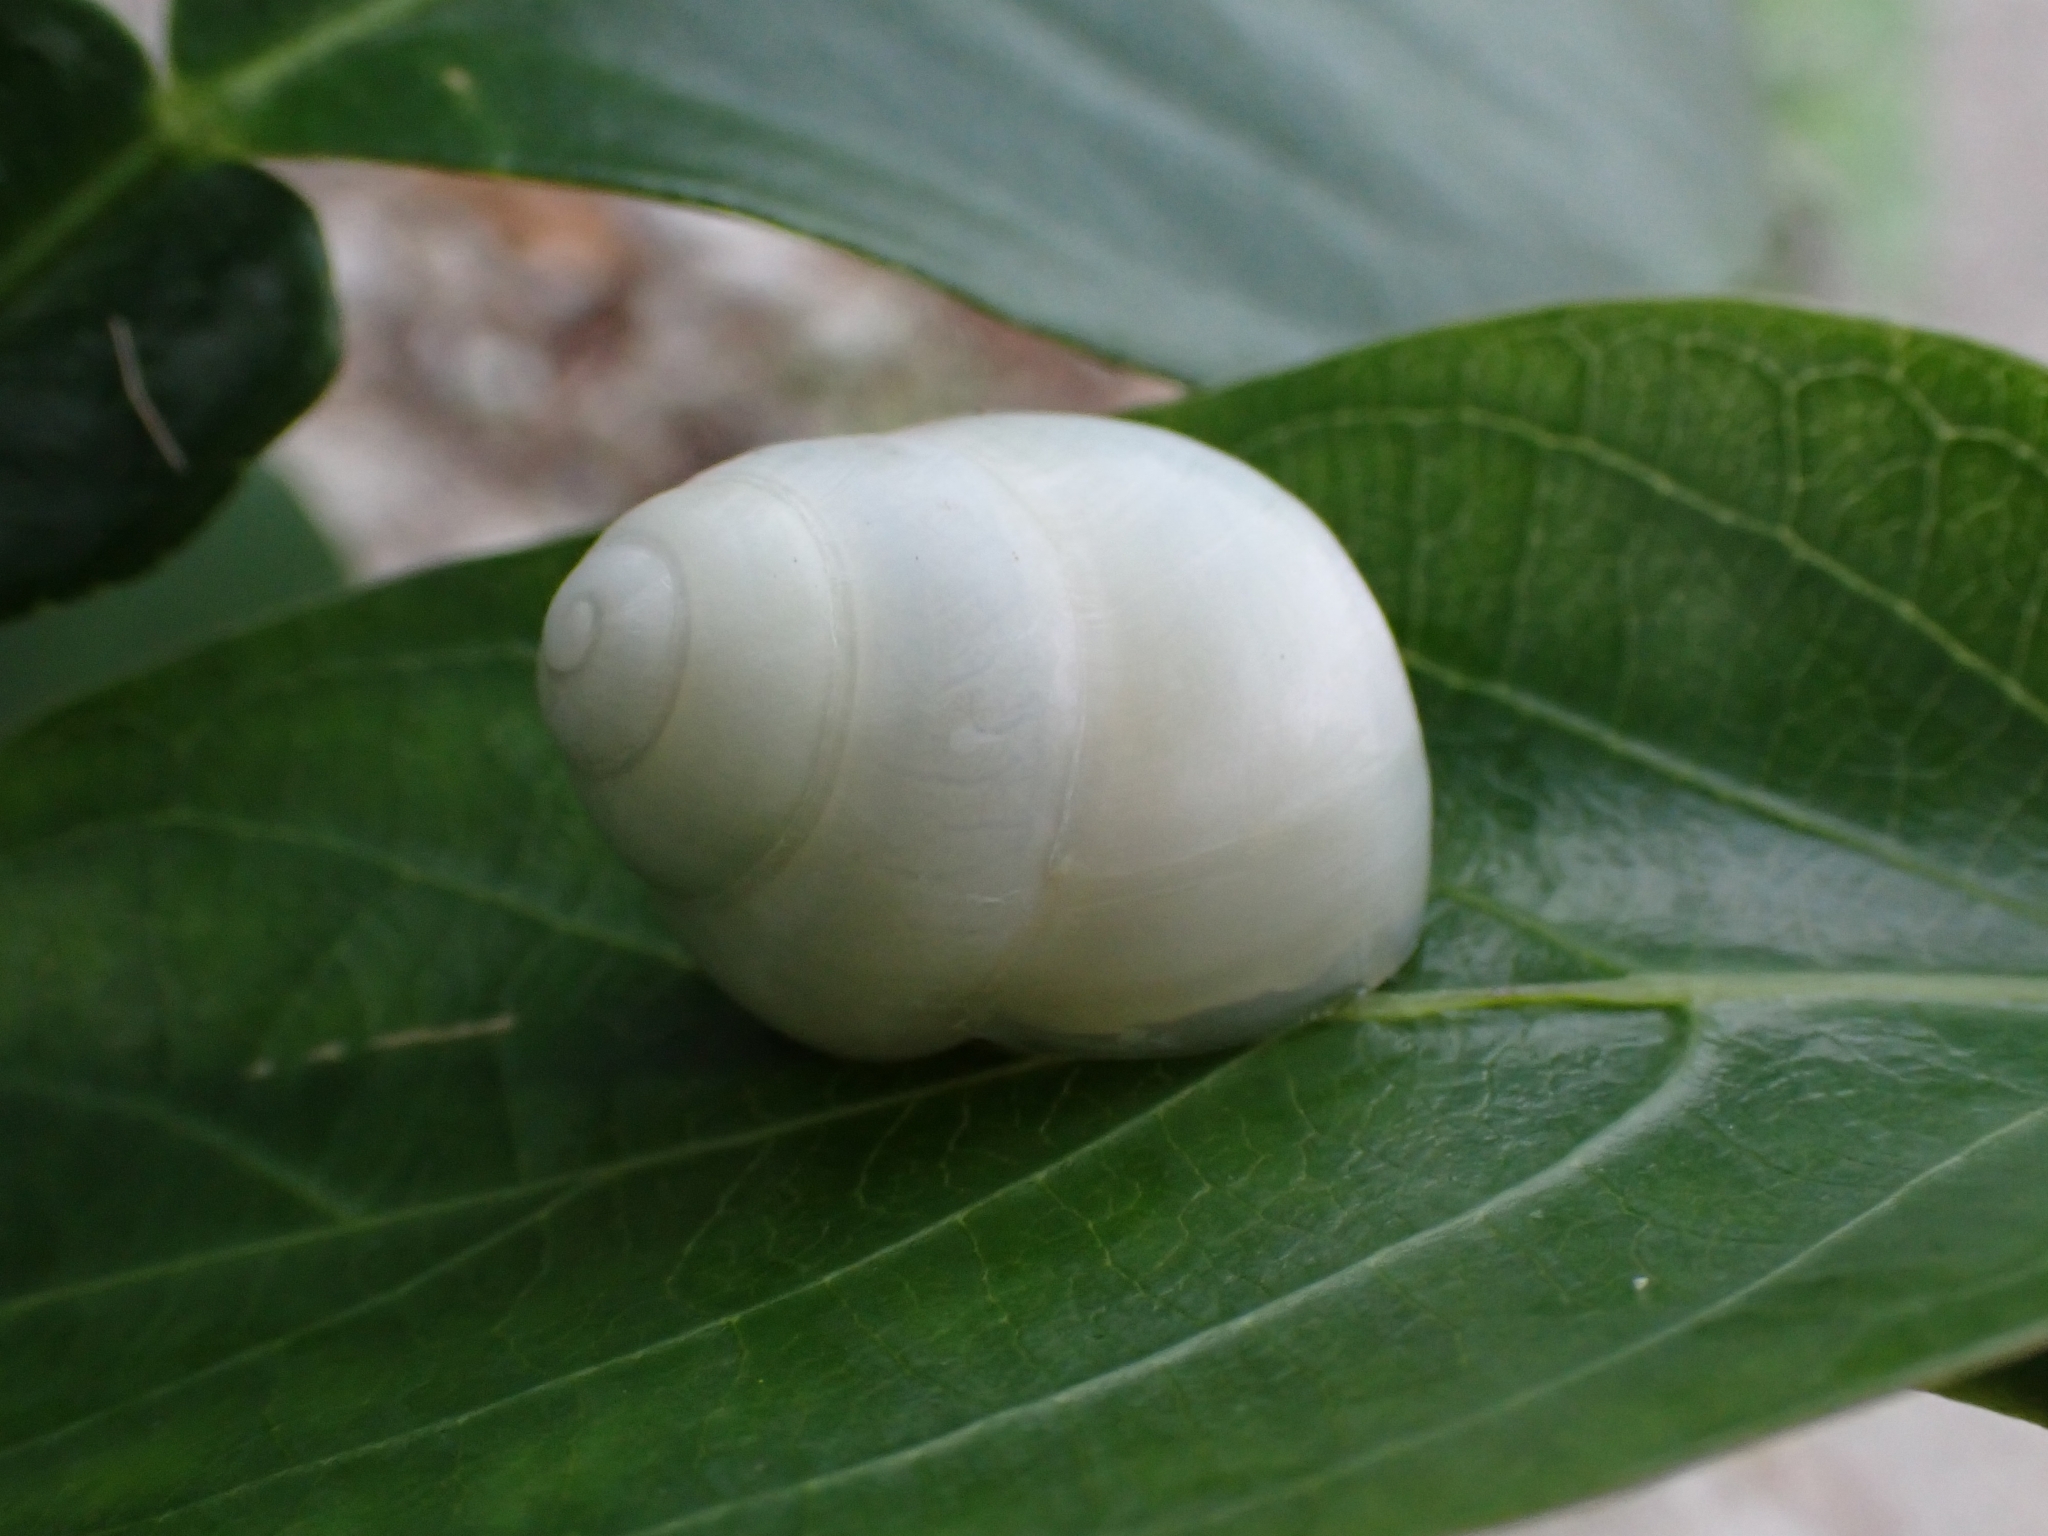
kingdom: Animalia
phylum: Mollusca
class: Gastropoda
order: Stylommatophora
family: Camaenidae
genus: Helicostyla
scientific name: Helicostyla okadai
